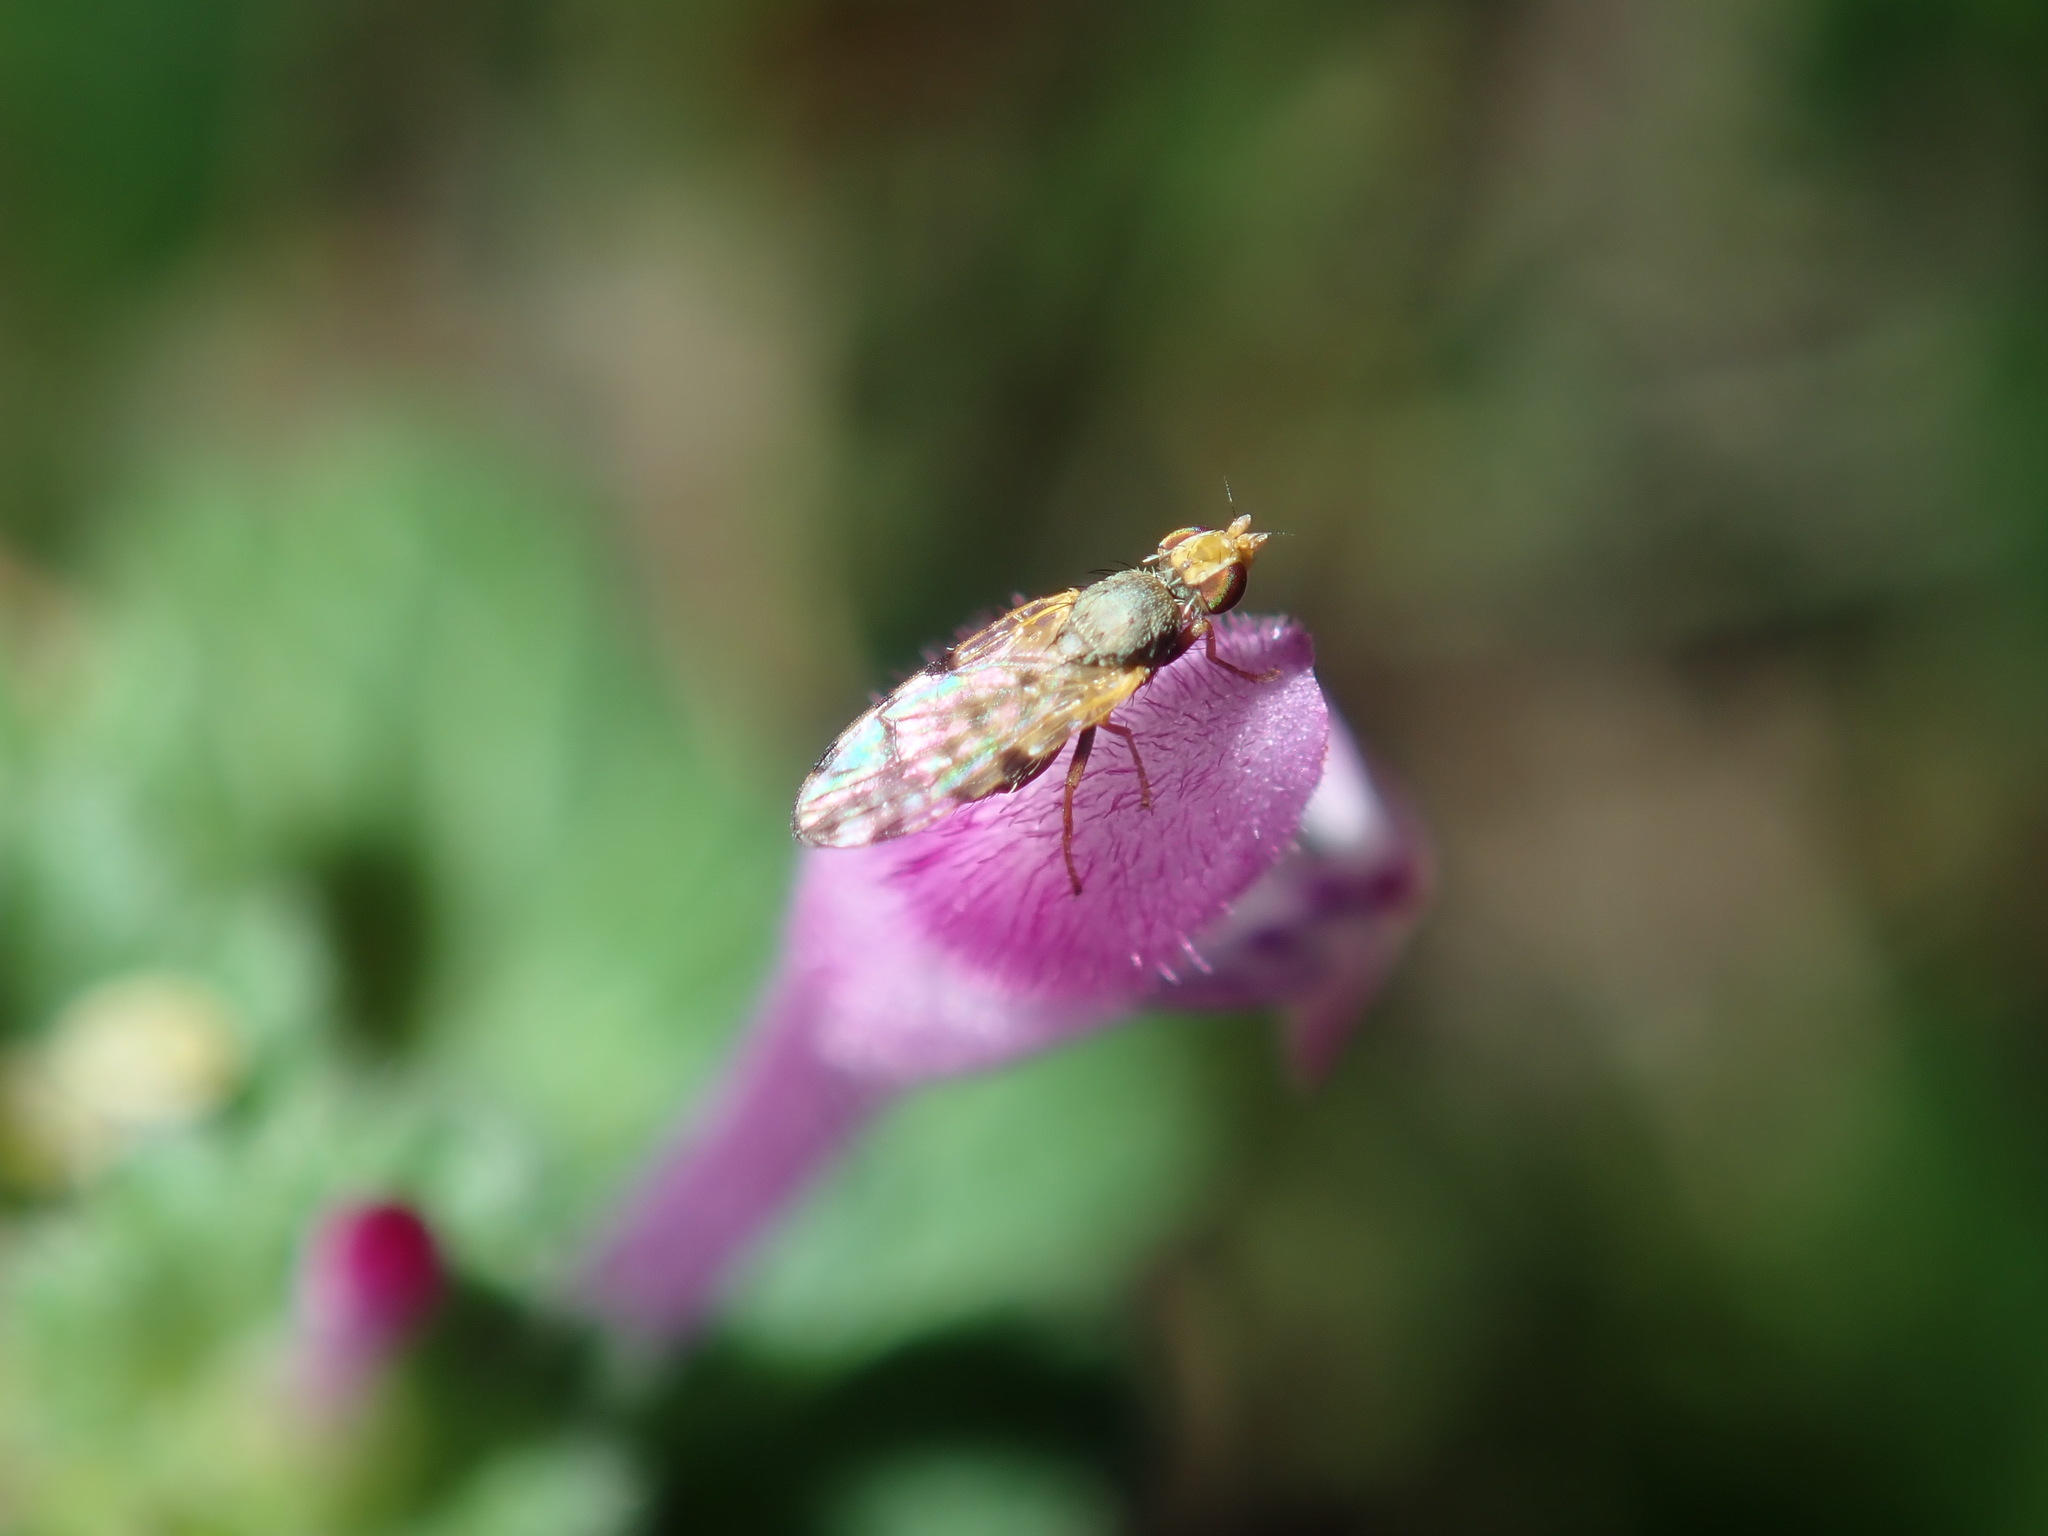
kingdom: Animalia
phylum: Arthropoda
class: Insecta
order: Diptera
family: Tephritidae
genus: Dioxyna
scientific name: Dioxyna sororcula
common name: Fruit fly
